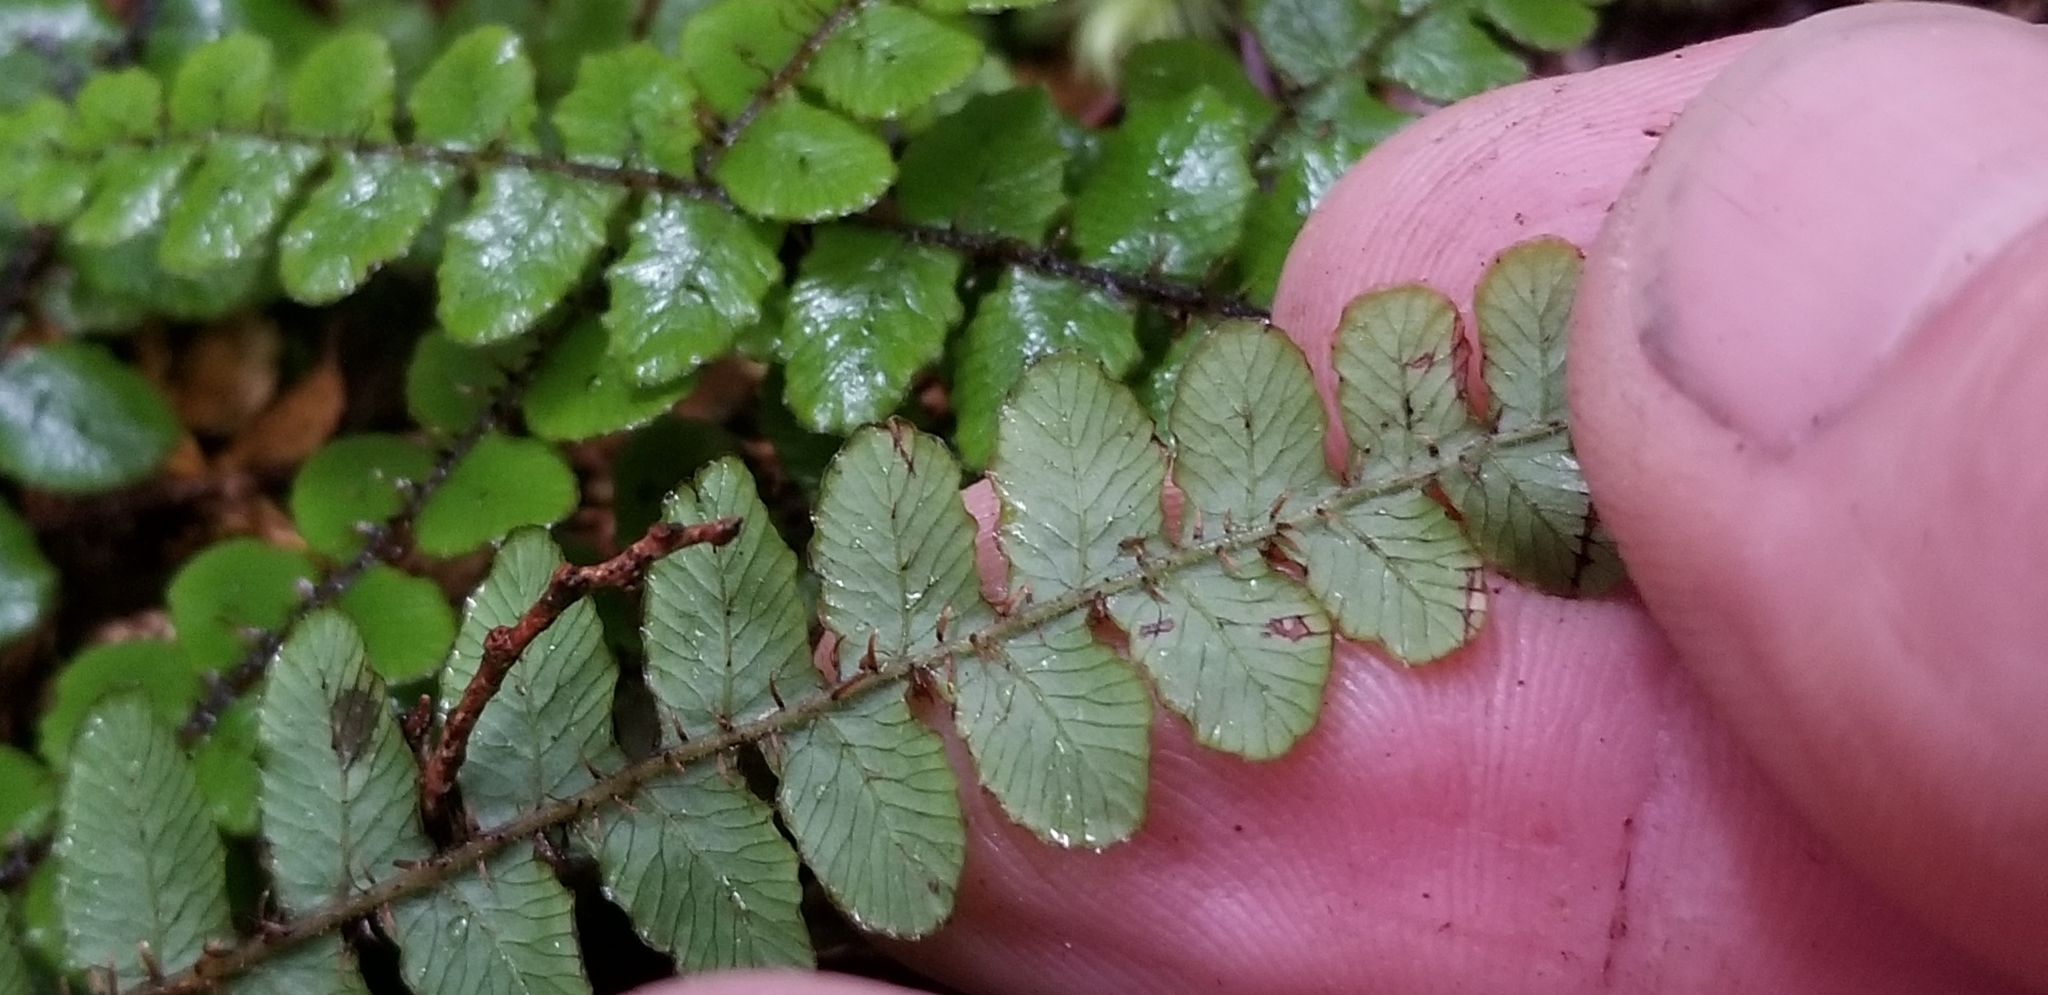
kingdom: Plantae
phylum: Tracheophyta
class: Polypodiopsida
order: Polypodiales
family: Blechnaceae
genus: Cranfillia
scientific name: Cranfillia fluviatilis
